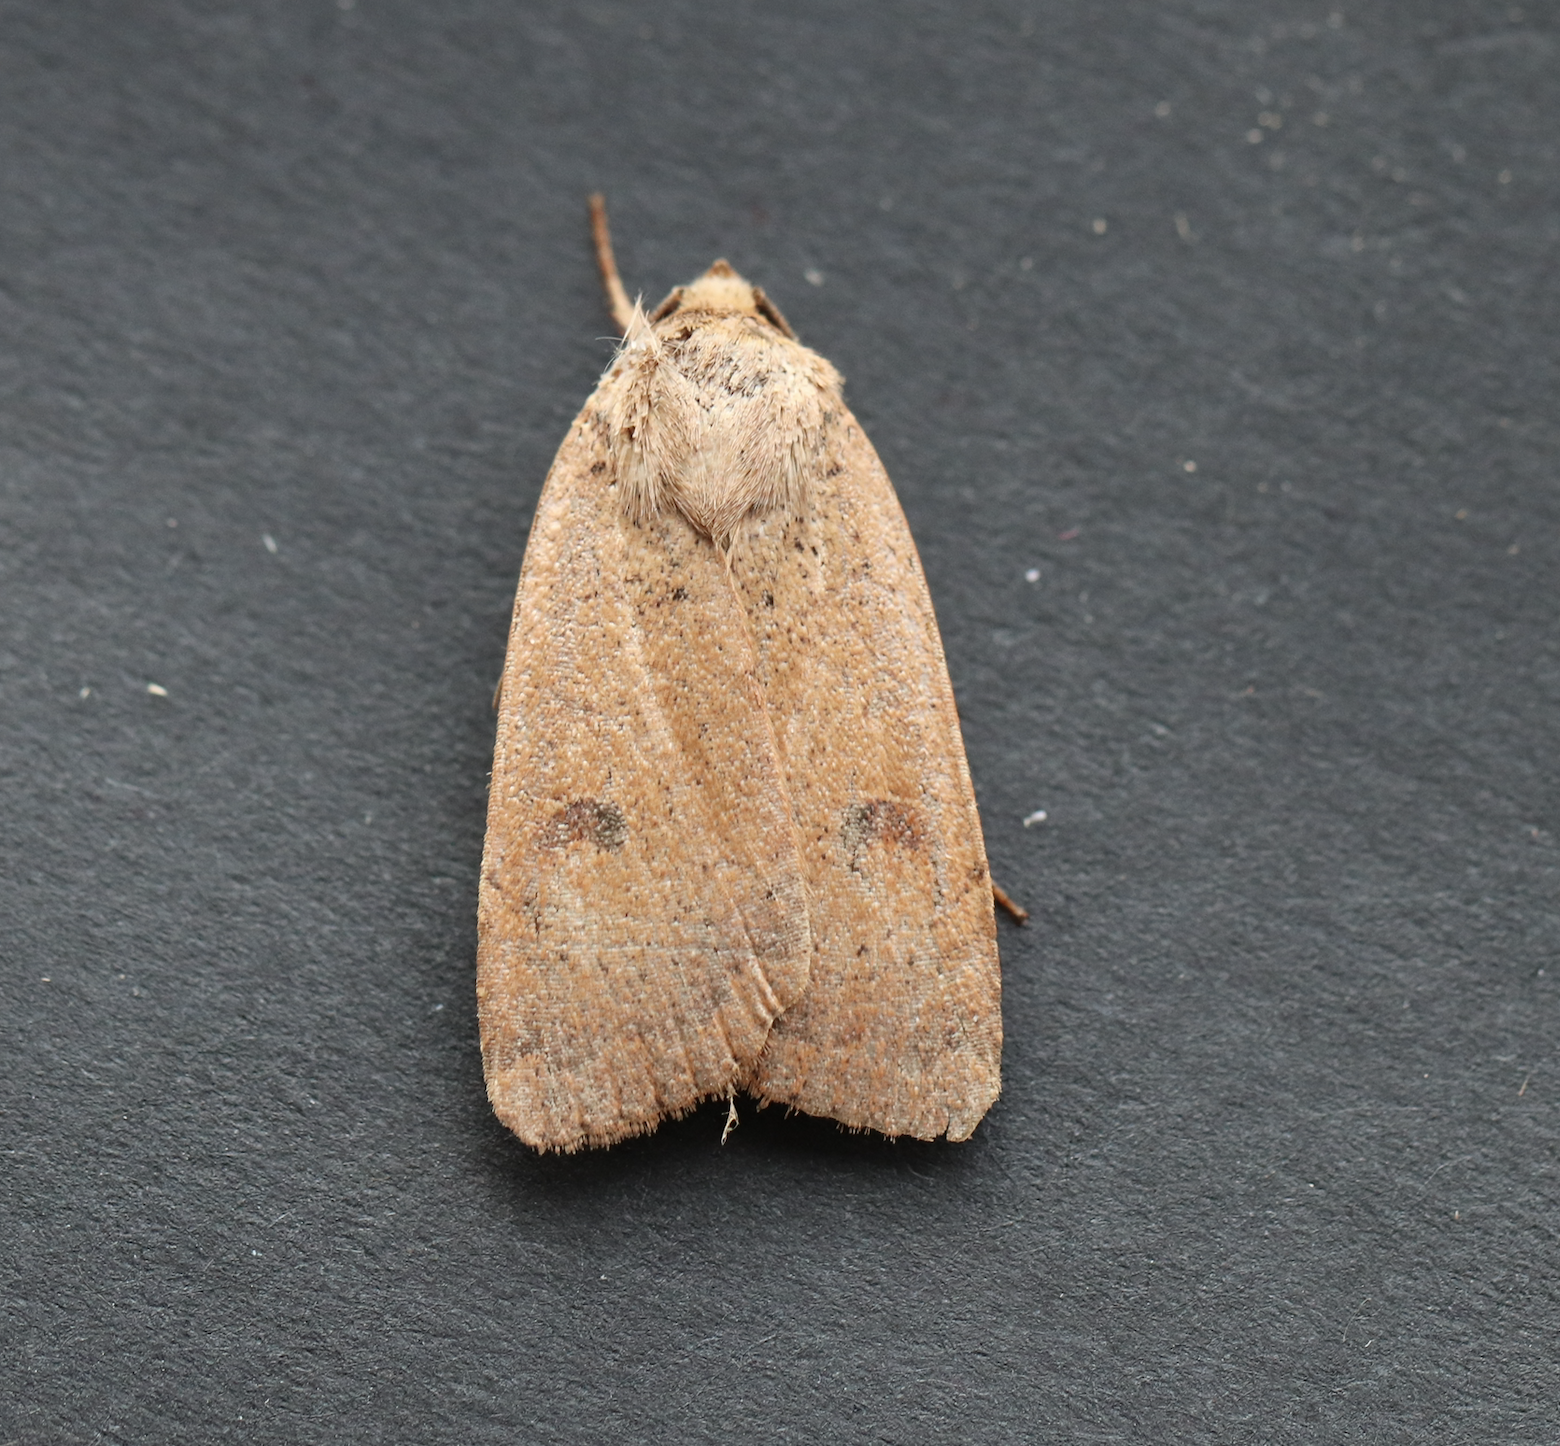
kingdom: Animalia
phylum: Arthropoda
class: Insecta
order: Lepidoptera
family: Noctuidae
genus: Noctua
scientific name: Noctua comes
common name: Lesser yellow underwing
